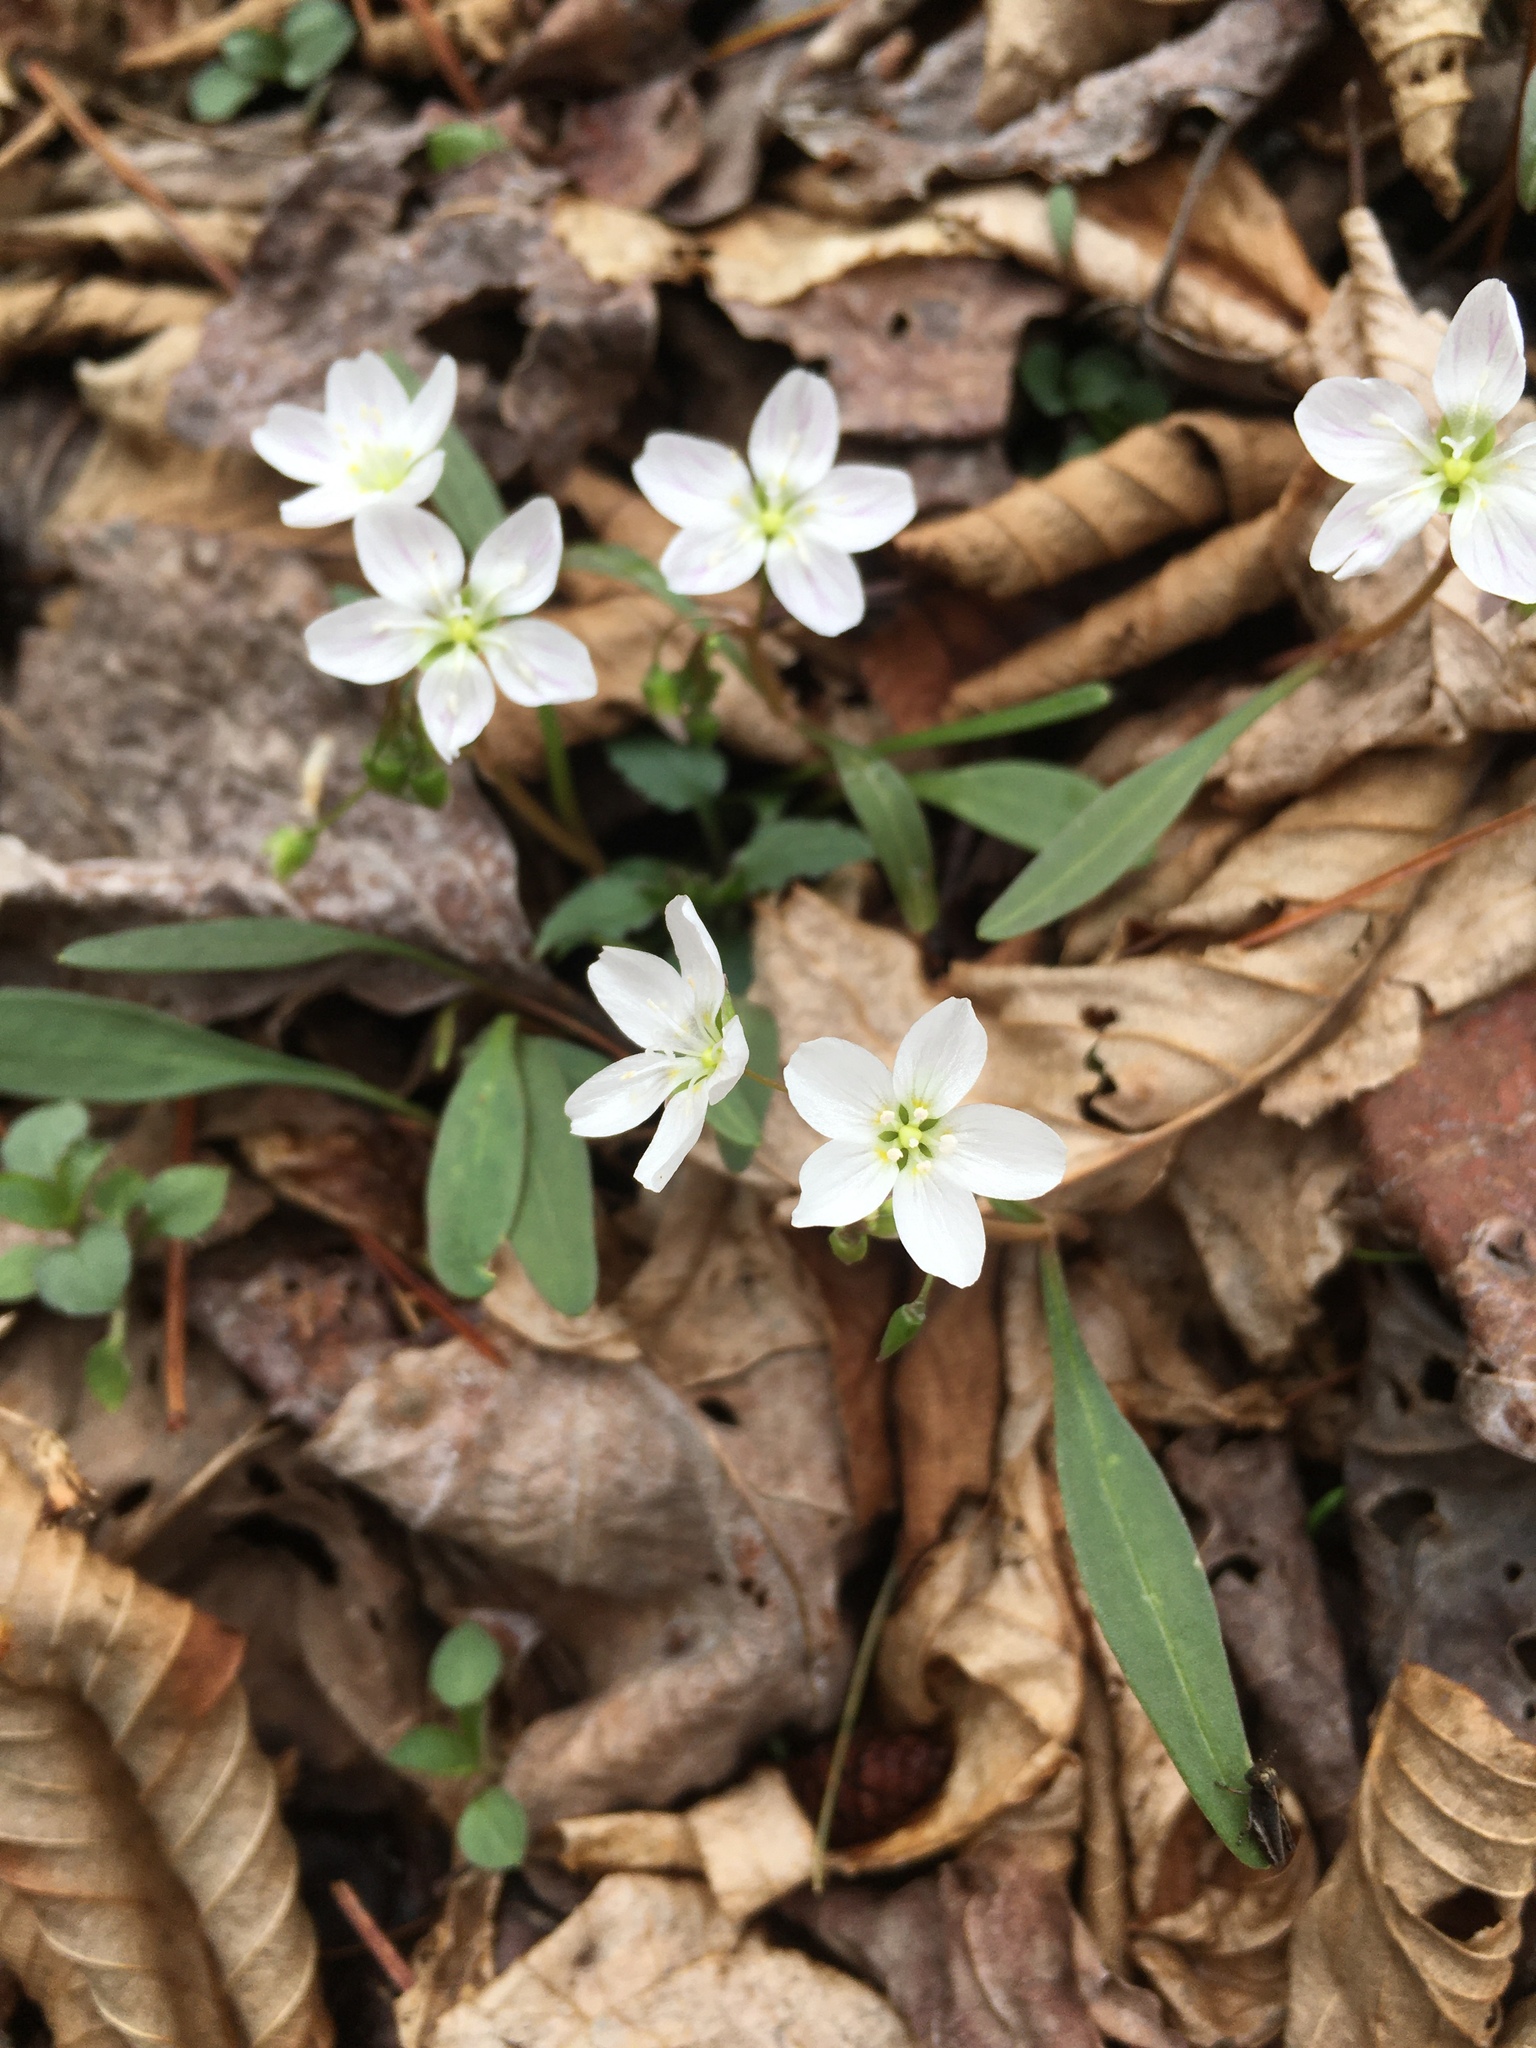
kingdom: Plantae
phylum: Tracheophyta
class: Magnoliopsida
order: Caryophyllales
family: Montiaceae
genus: Claytonia
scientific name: Claytonia caroliniana
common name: Carolina spring beauty
